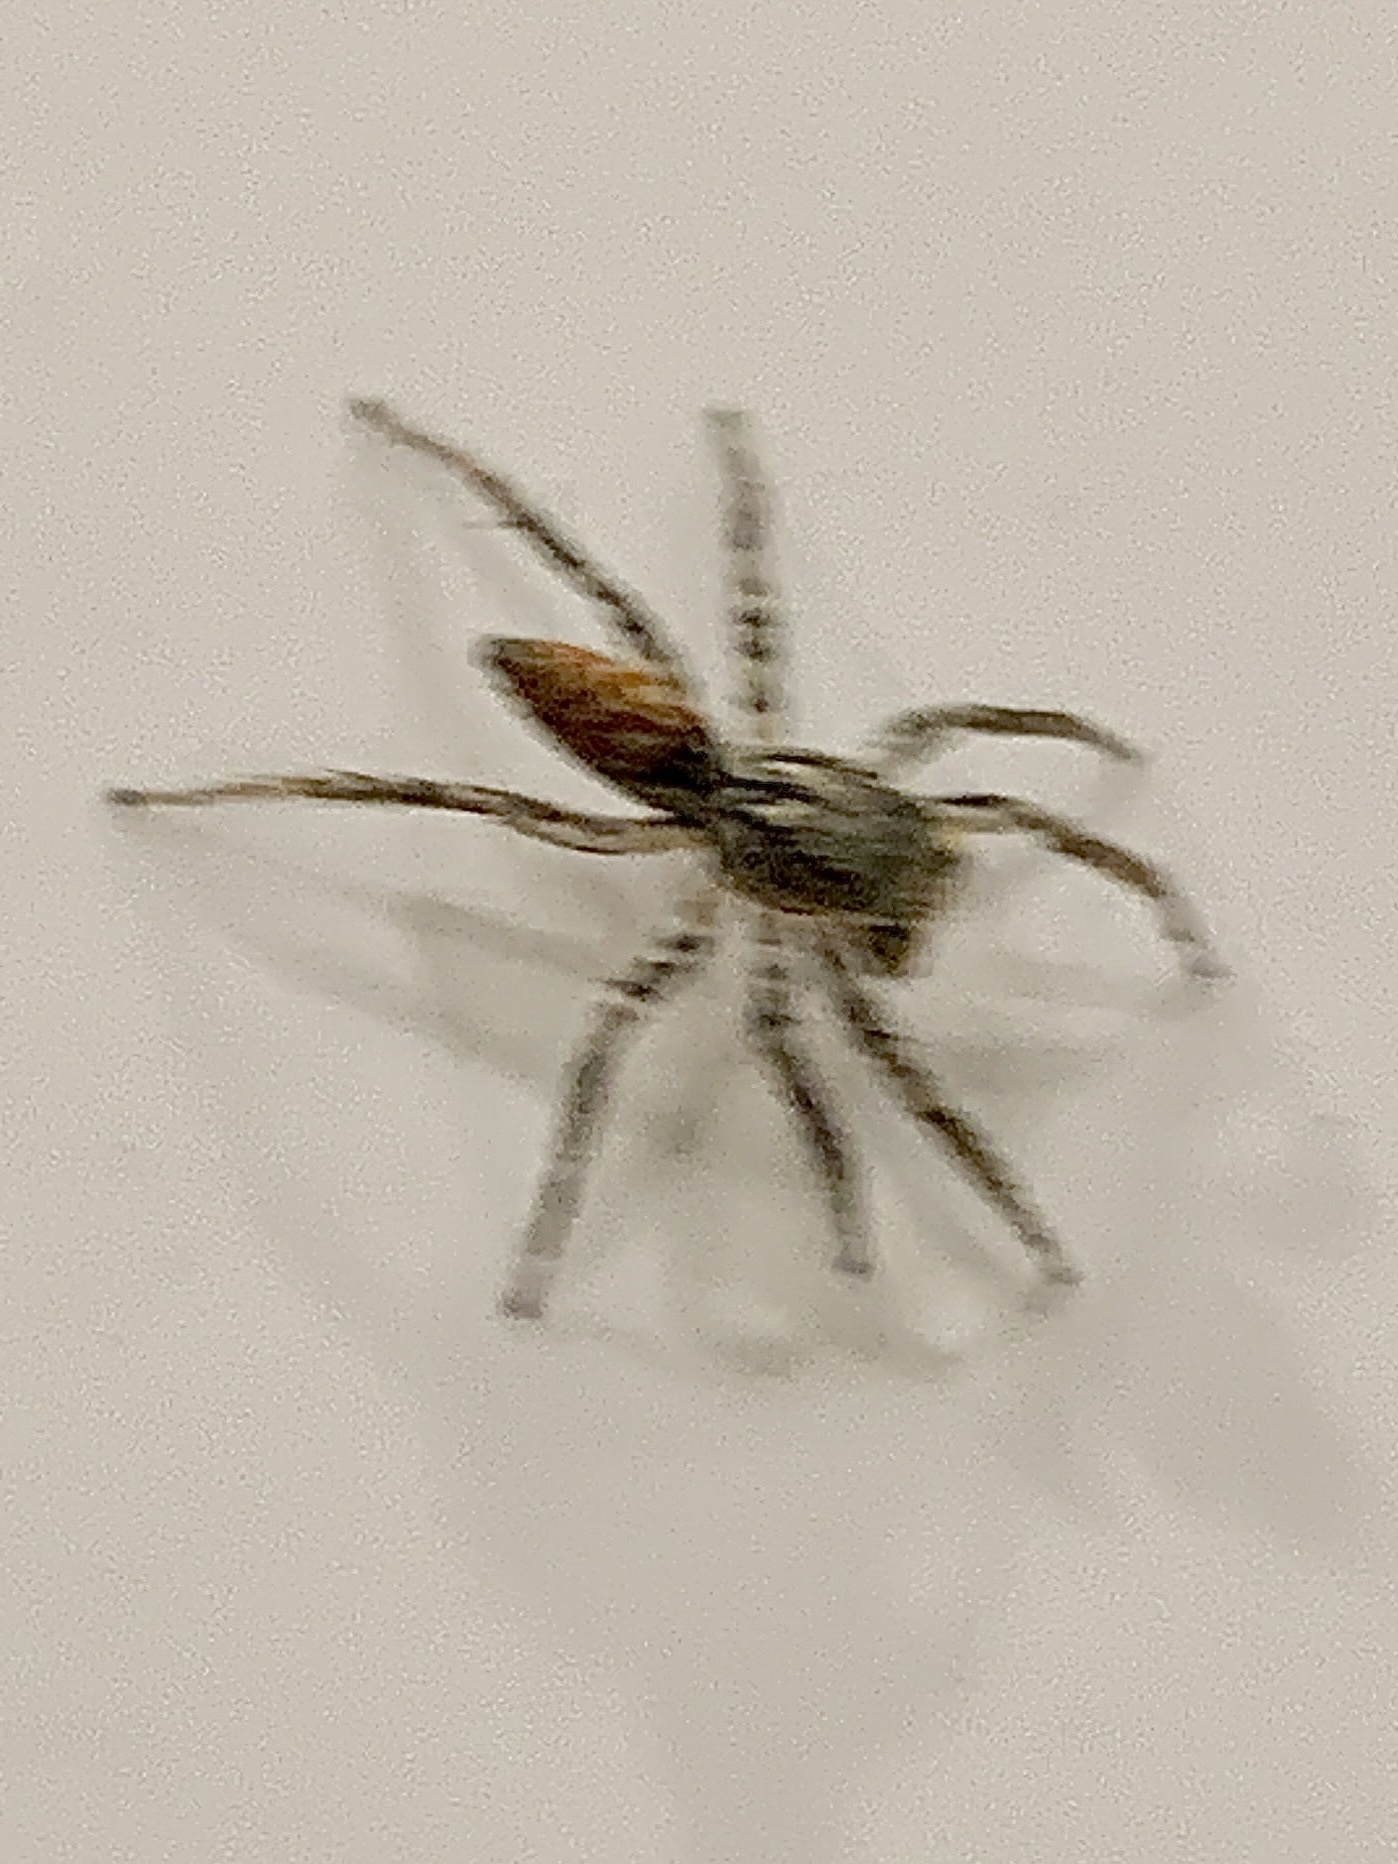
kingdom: Animalia
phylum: Arthropoda
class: Arachnida
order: Araneae
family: Salticidae
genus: Maevia
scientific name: Maevia inclemens
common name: Dimorphic jumper
